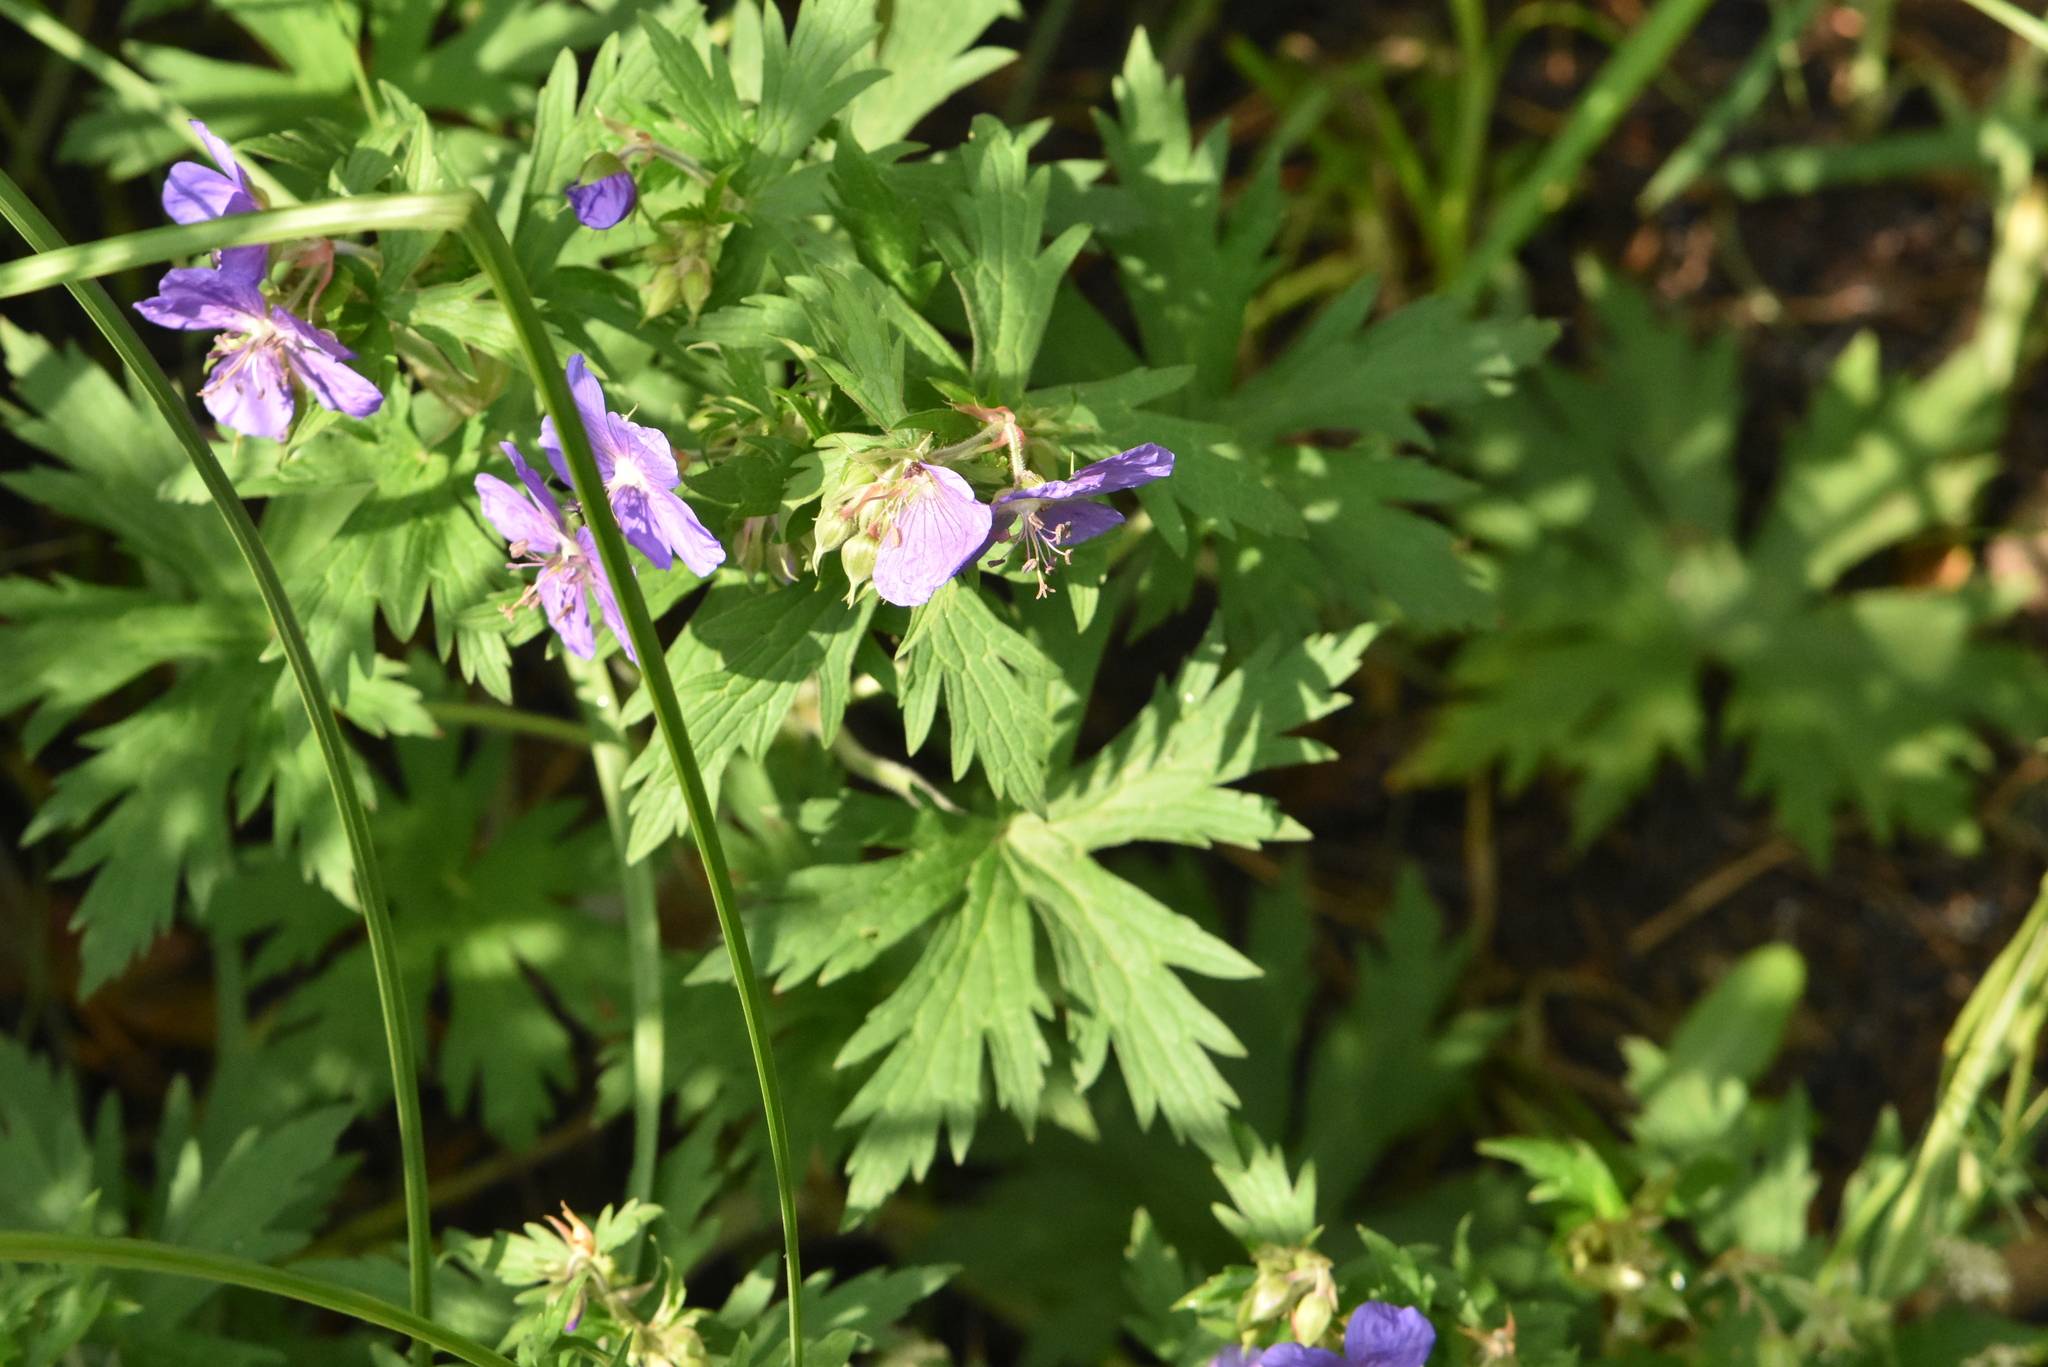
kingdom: Plantae
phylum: Tracheophyta
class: Magnoliopsida
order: Geraniales
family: Geraniaceae
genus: Geranium
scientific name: Geranium pratense
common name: Meadow crane's-bill
